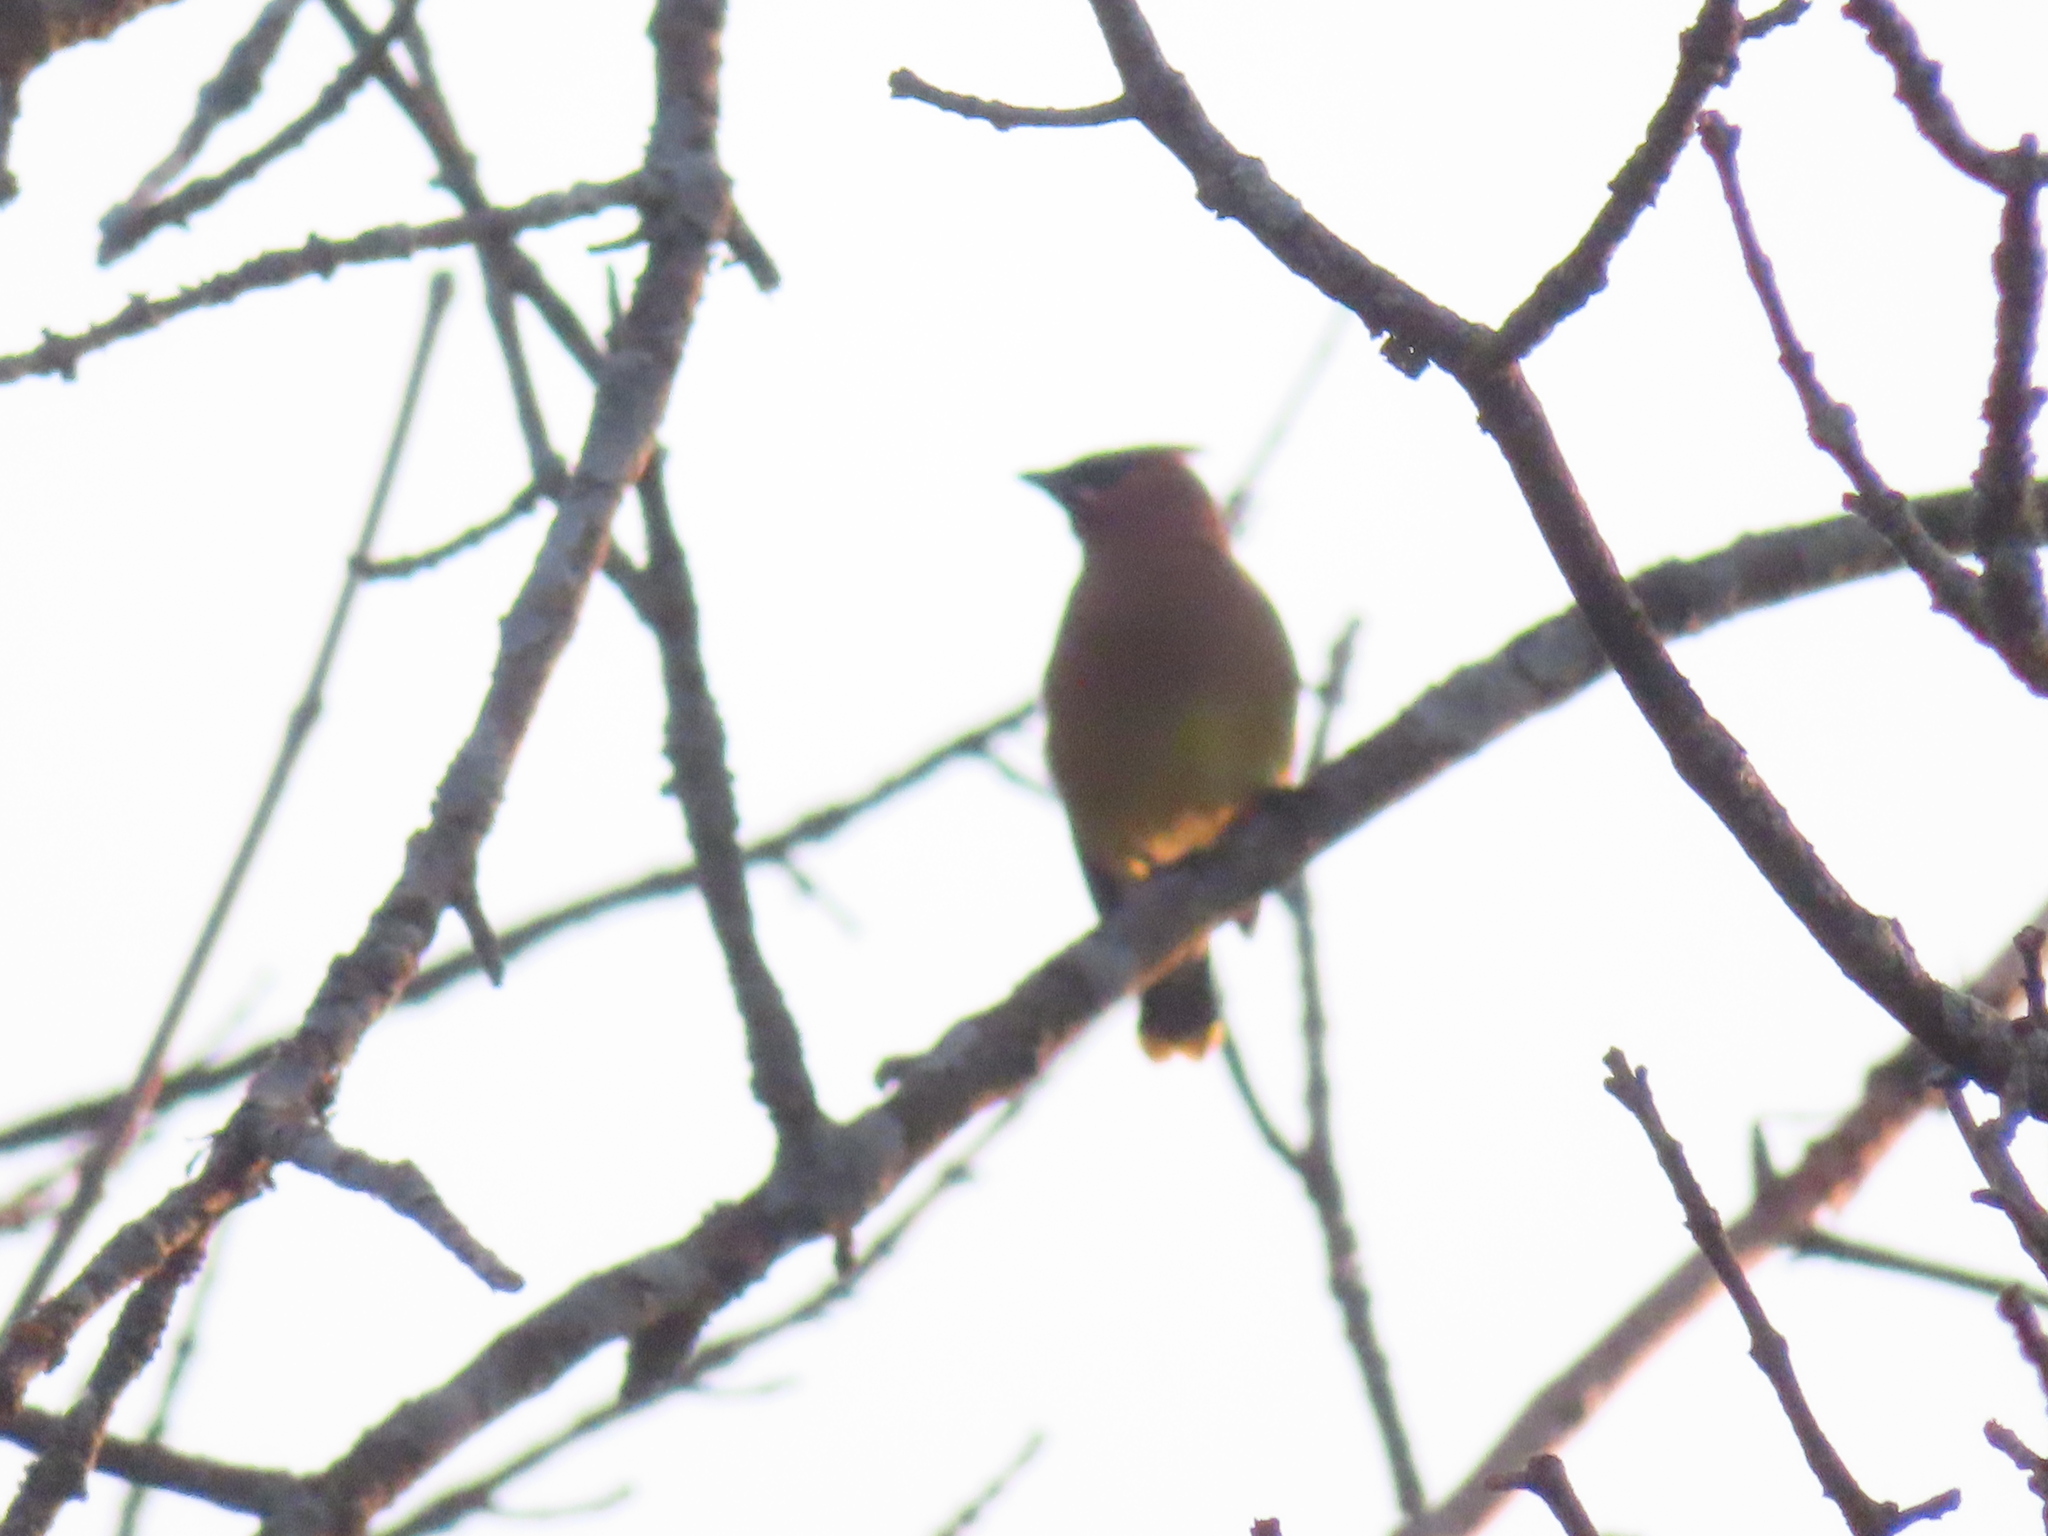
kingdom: Animalia
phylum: Chordata
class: Aves
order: Passeriformes
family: Bombycillidae
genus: Bombycilla
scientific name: Bombycilla cedrorum
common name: Cedar waxwing
